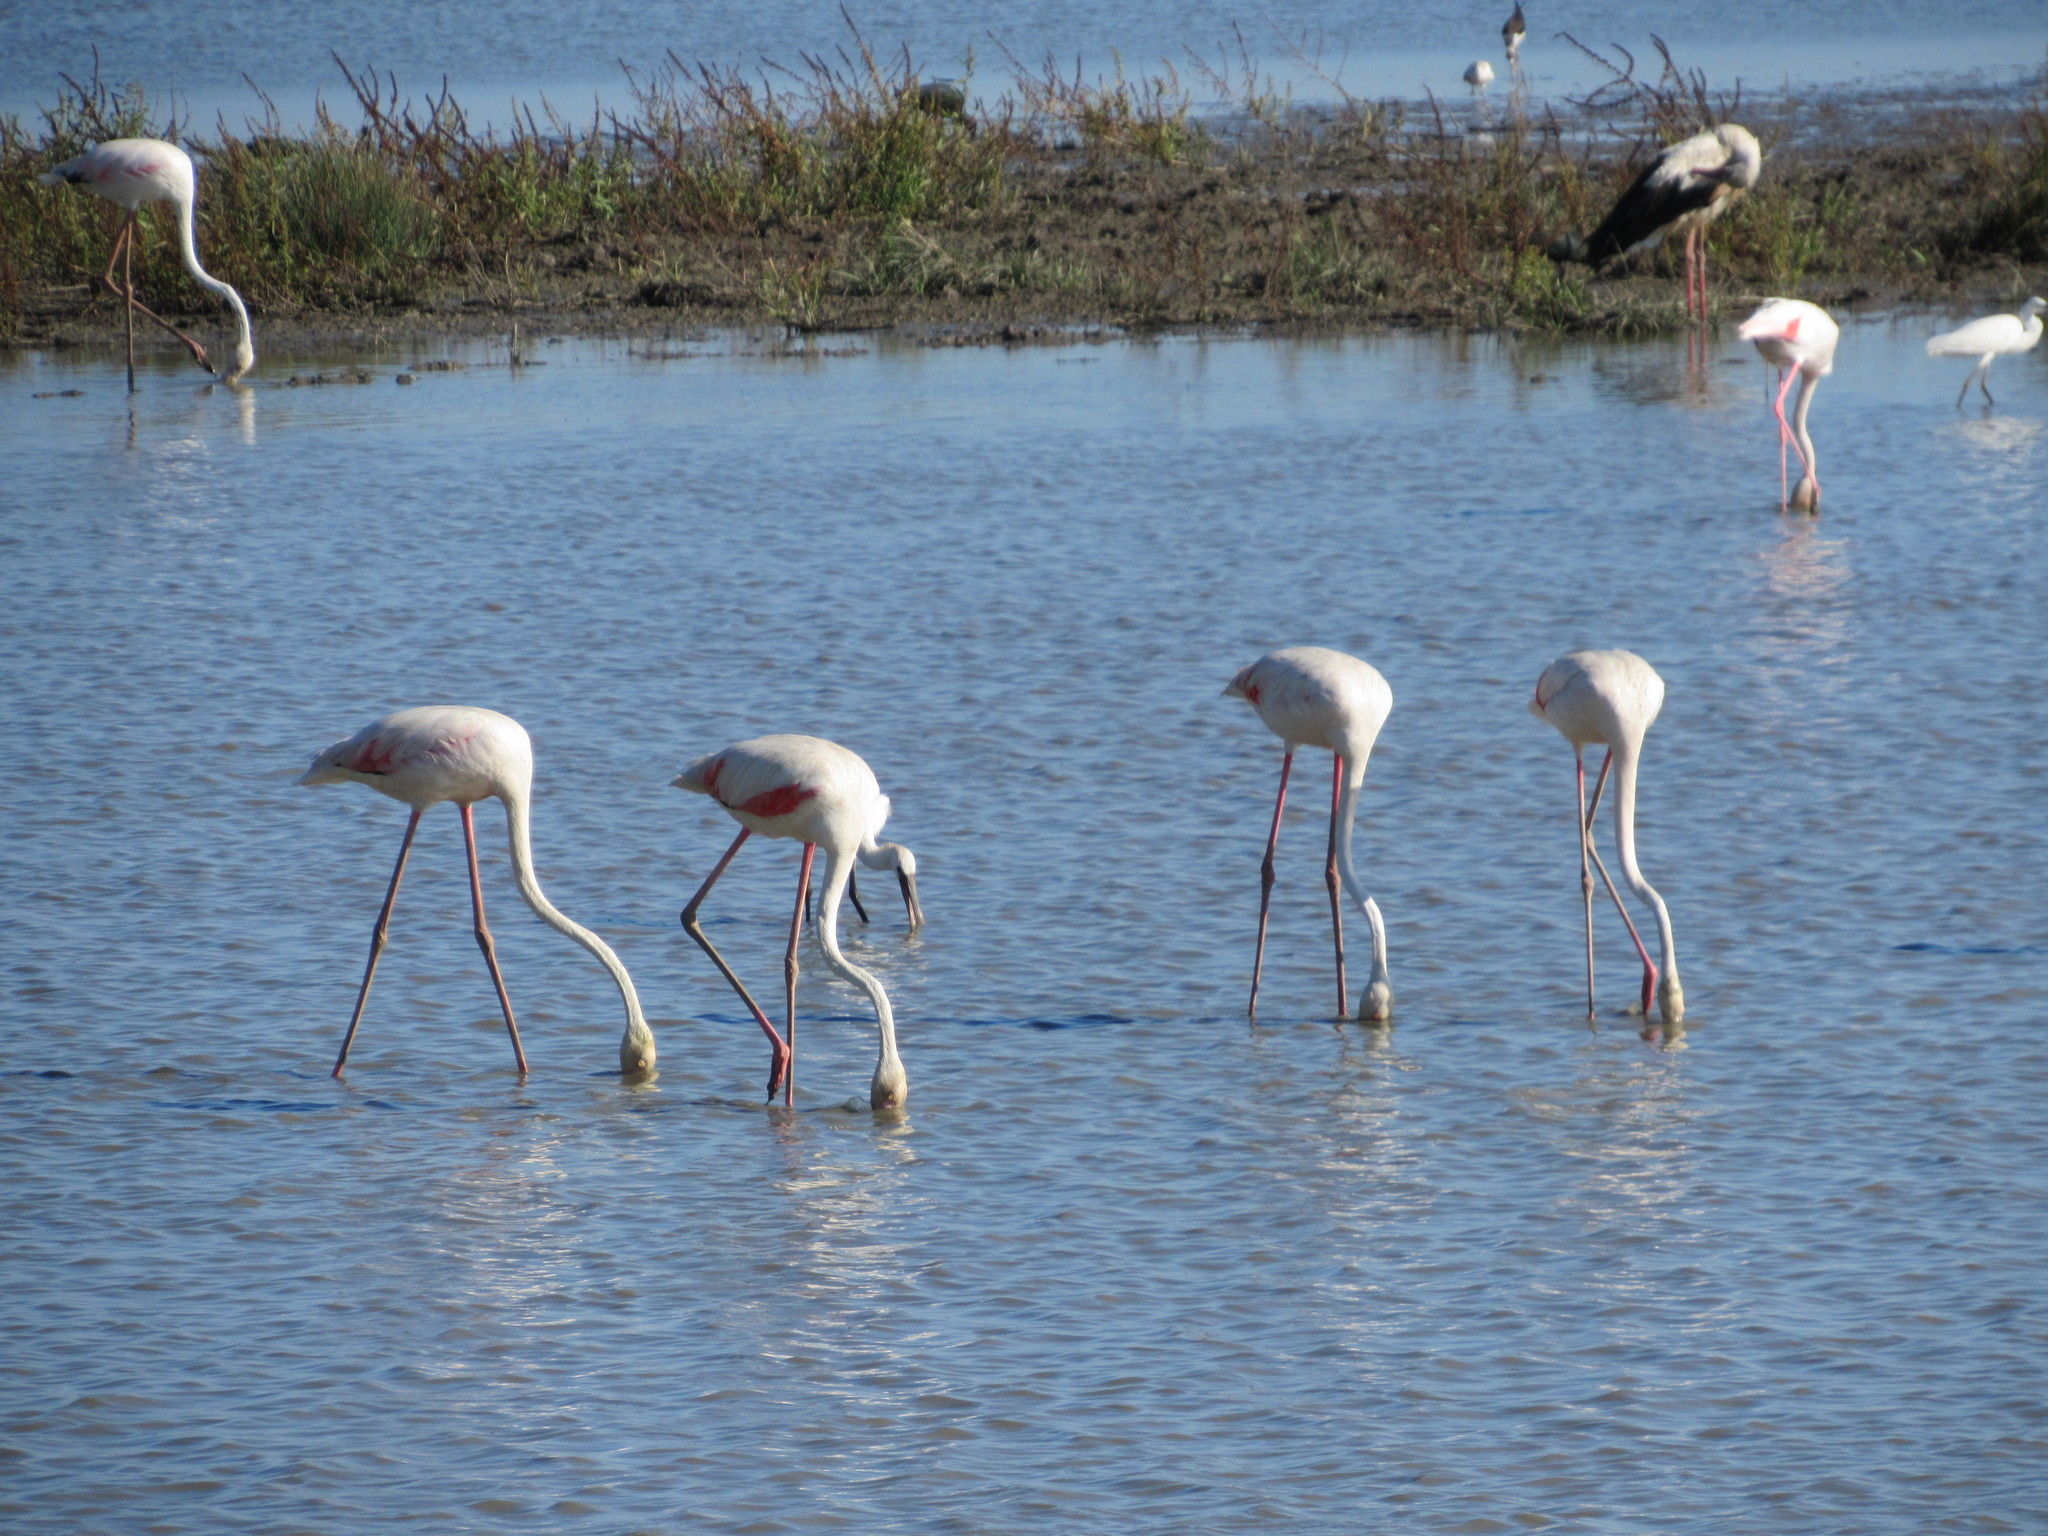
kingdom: Animalia
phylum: Chordata
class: Aves
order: Phoenicopteriformes
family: Phoenicopteridae
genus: Phoenicopterus
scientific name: Phoenicopterus roseus
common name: Greater flamingo
